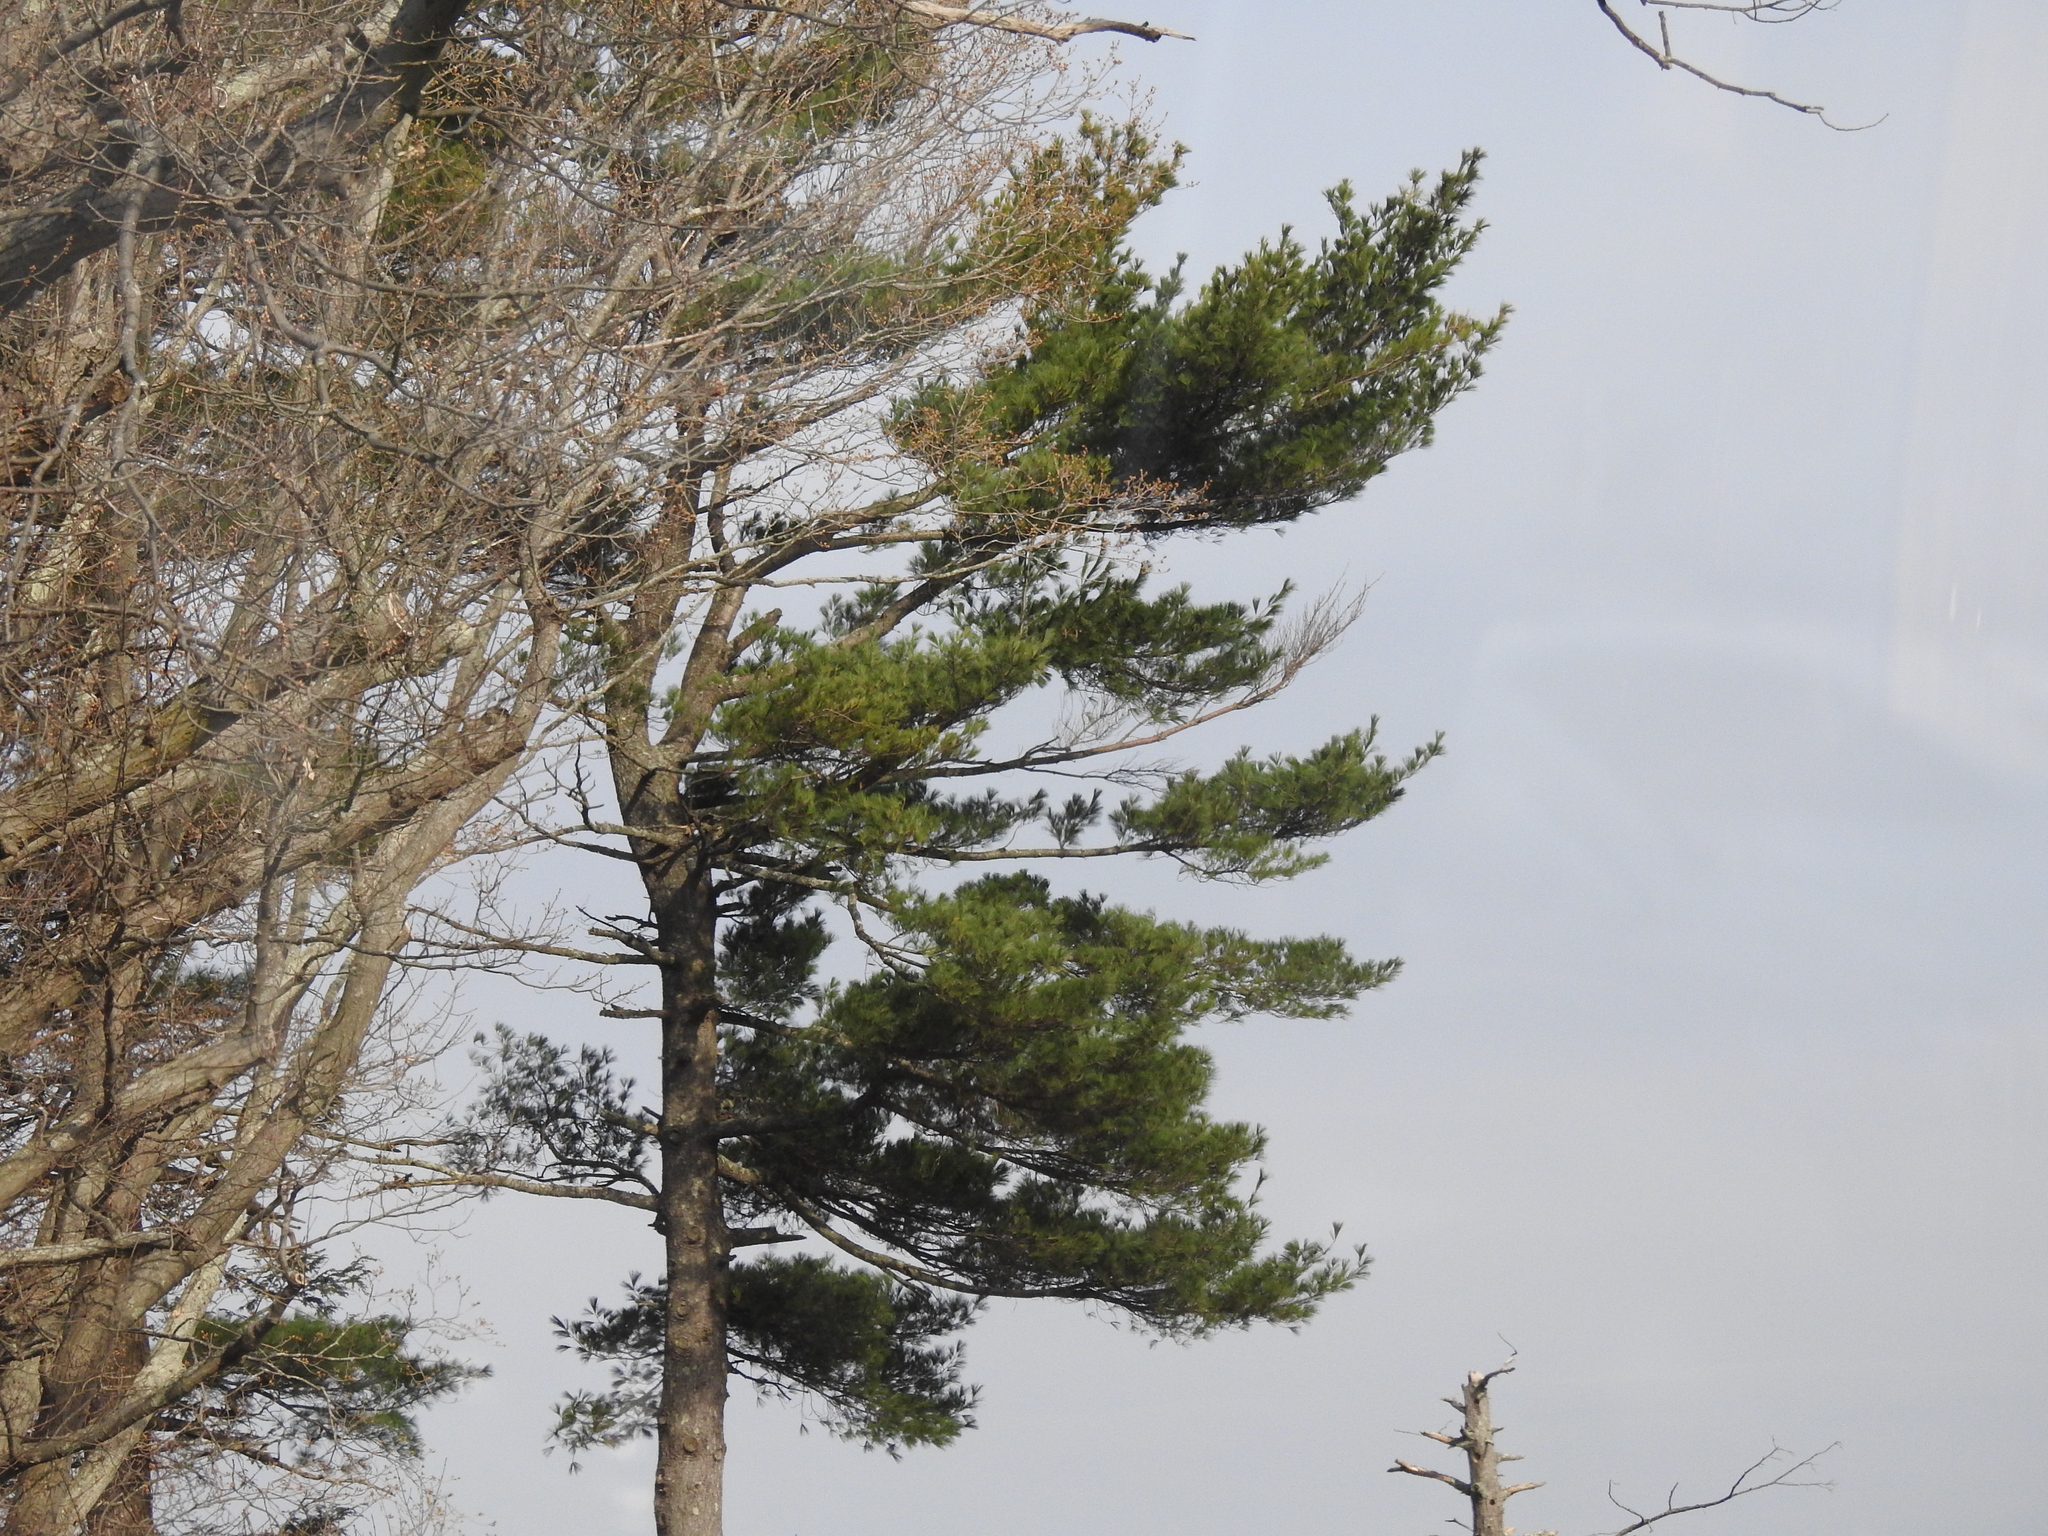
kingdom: Plantae
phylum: Tracheophyta
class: Pinopsida
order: Pinales
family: Pinaceae
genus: Pinus
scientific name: Pinus strobus
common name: Weymouth pine
